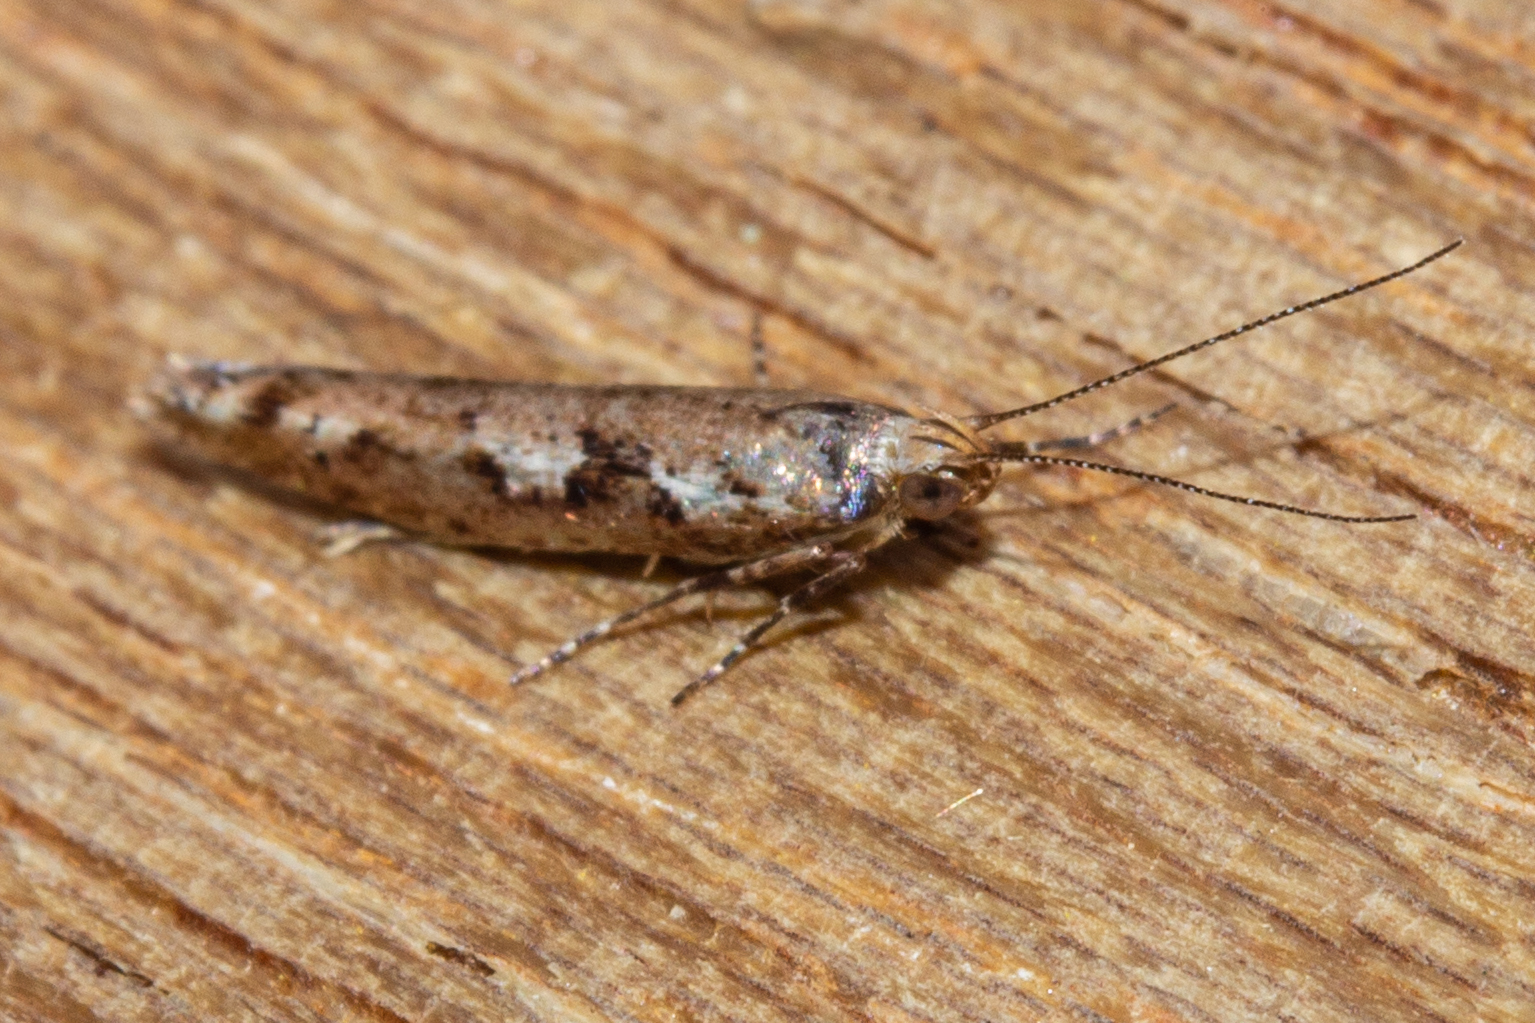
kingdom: Animalia
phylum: Arthropoda
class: Insecta
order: Lepidoptera
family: Glyphipterigidae
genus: Chrysorthenches
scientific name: Chrysorthenches porphyritis
